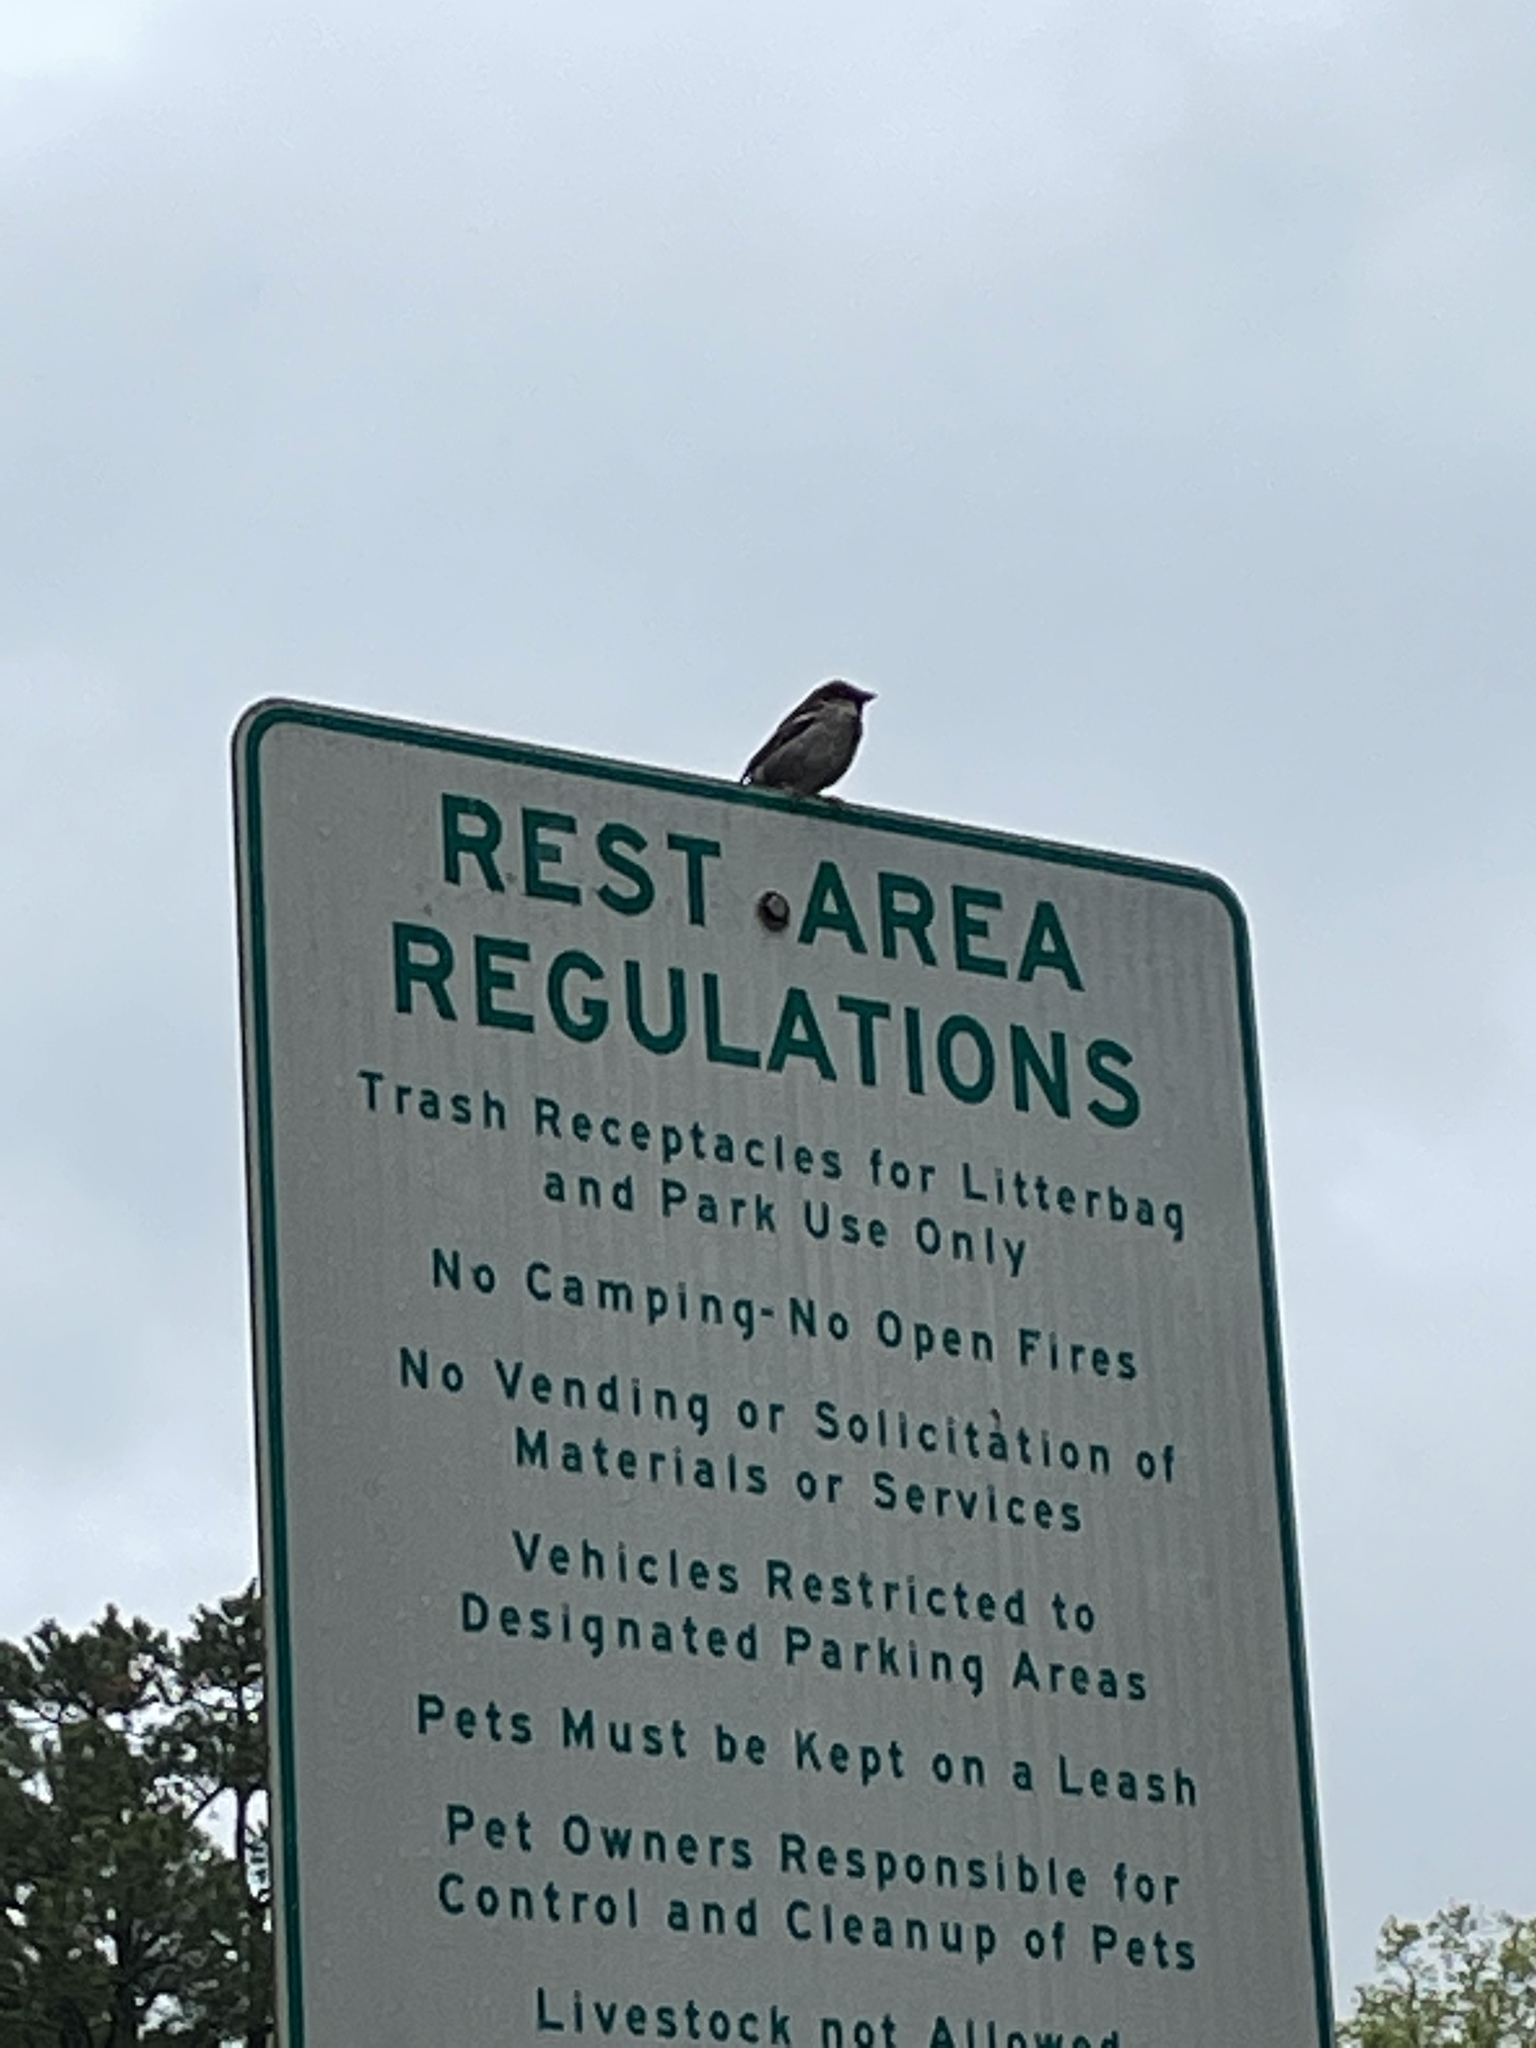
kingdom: Animalia
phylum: Chordata
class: Aves
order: Passeriformes
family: Passeridae
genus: Passer
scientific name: Passer domesticus
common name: House sparrow
